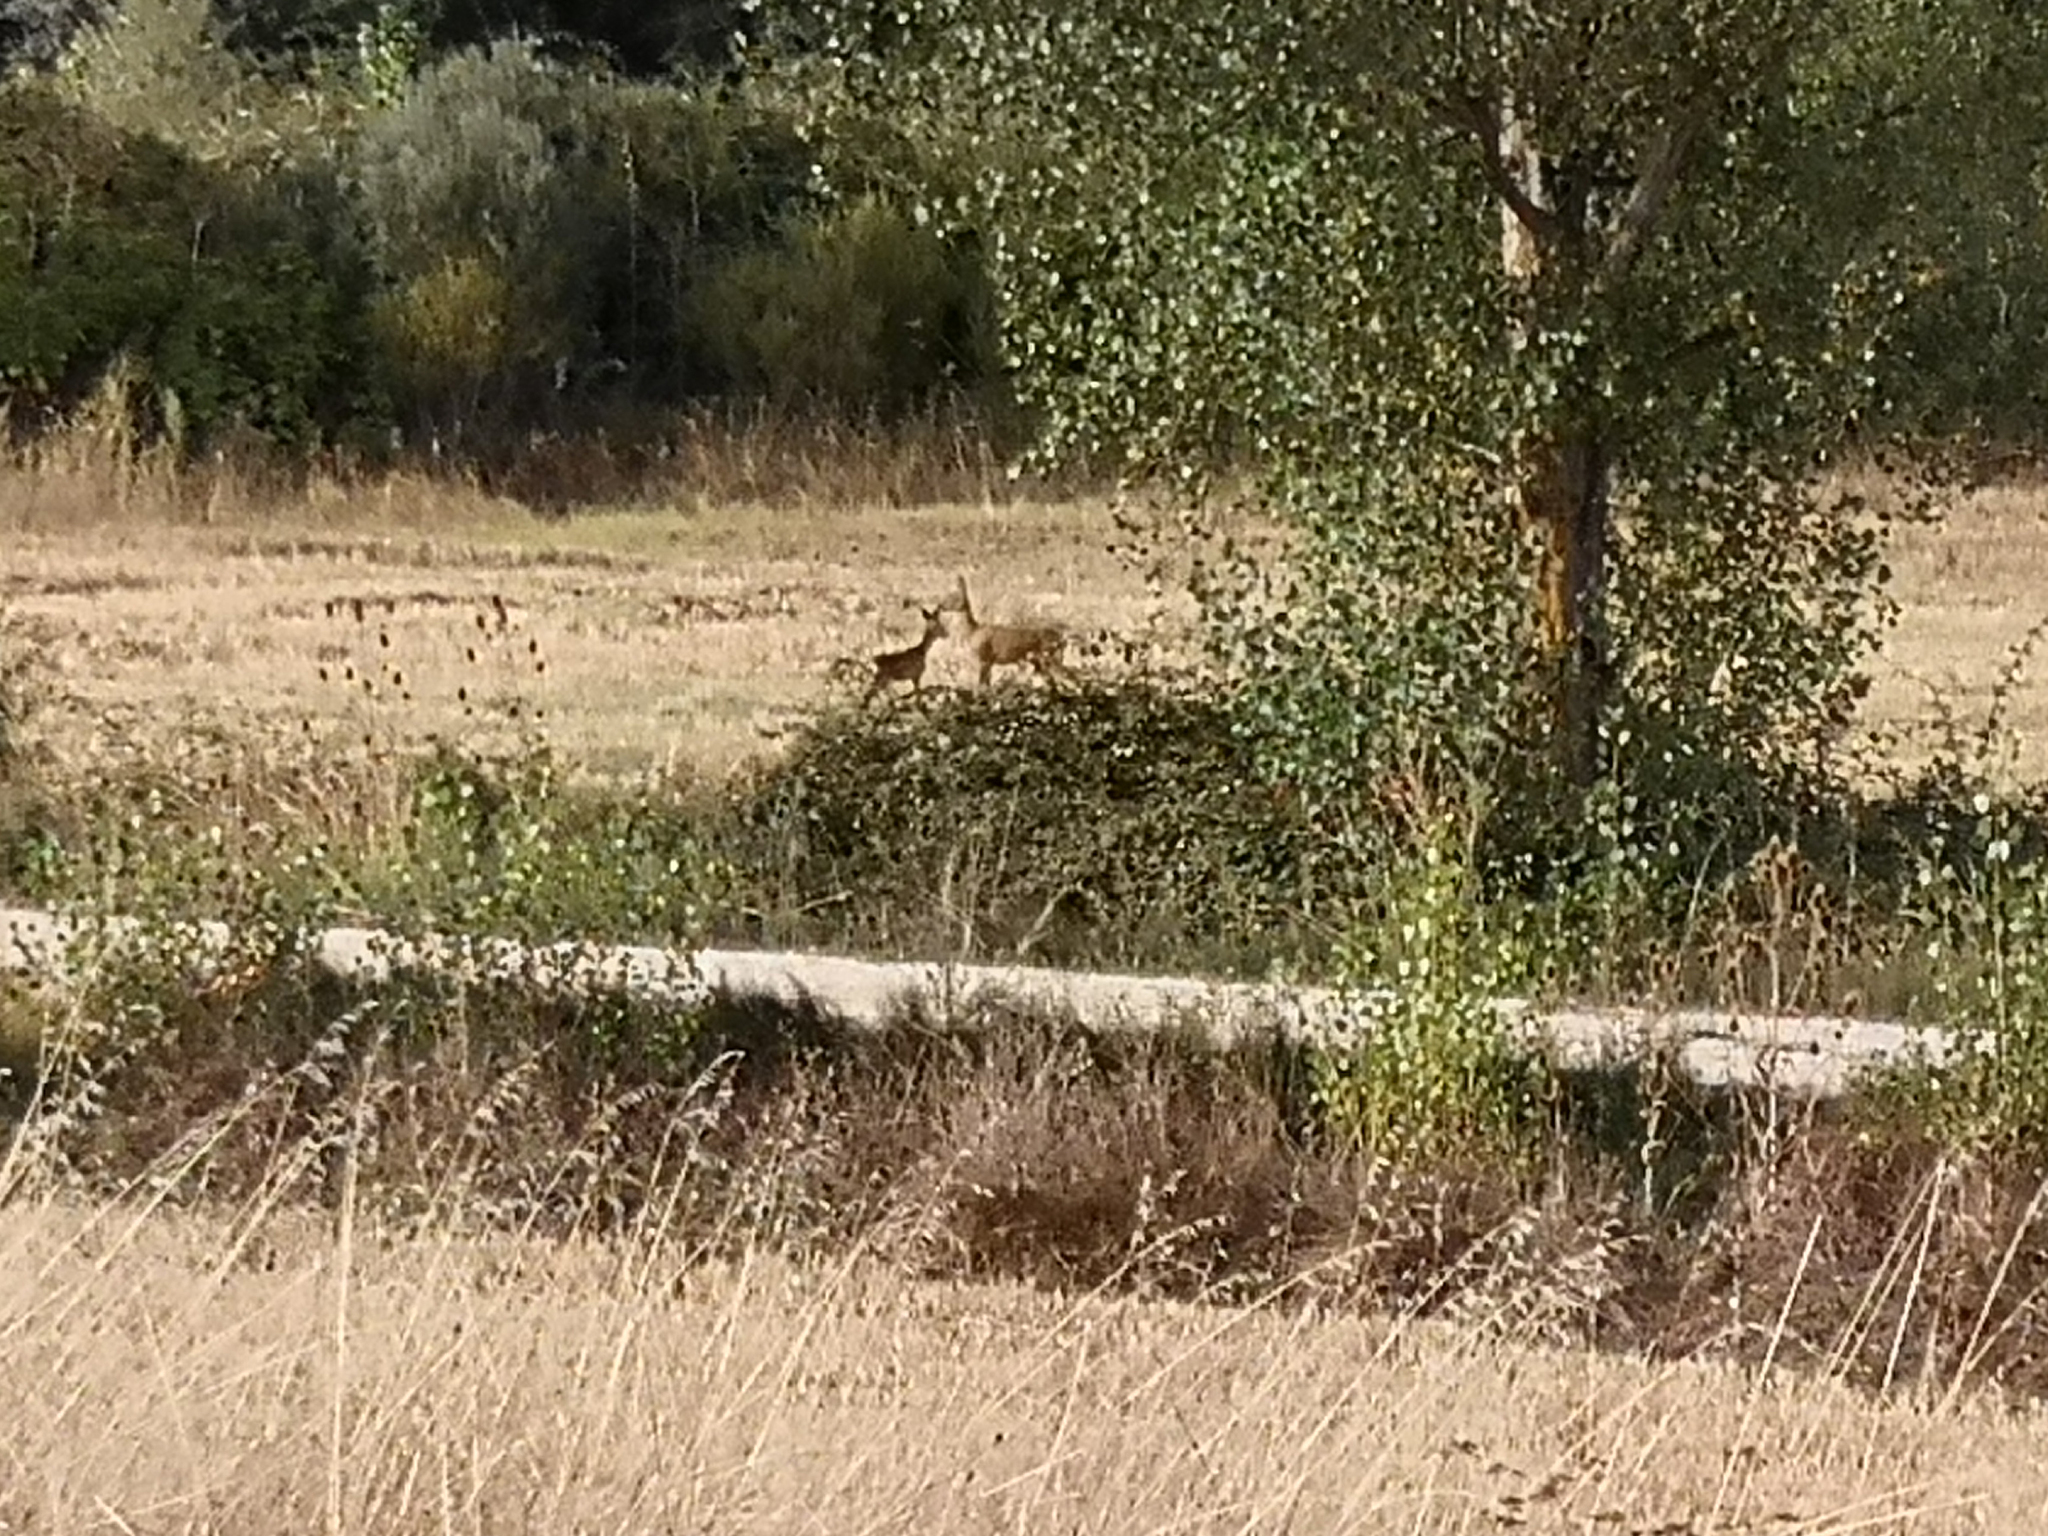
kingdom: Animalia
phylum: Chordata
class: Mammalia
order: Artiodactyla
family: Cervidae
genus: Capreolus
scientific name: Capreolus capreolus
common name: Western roe deer
